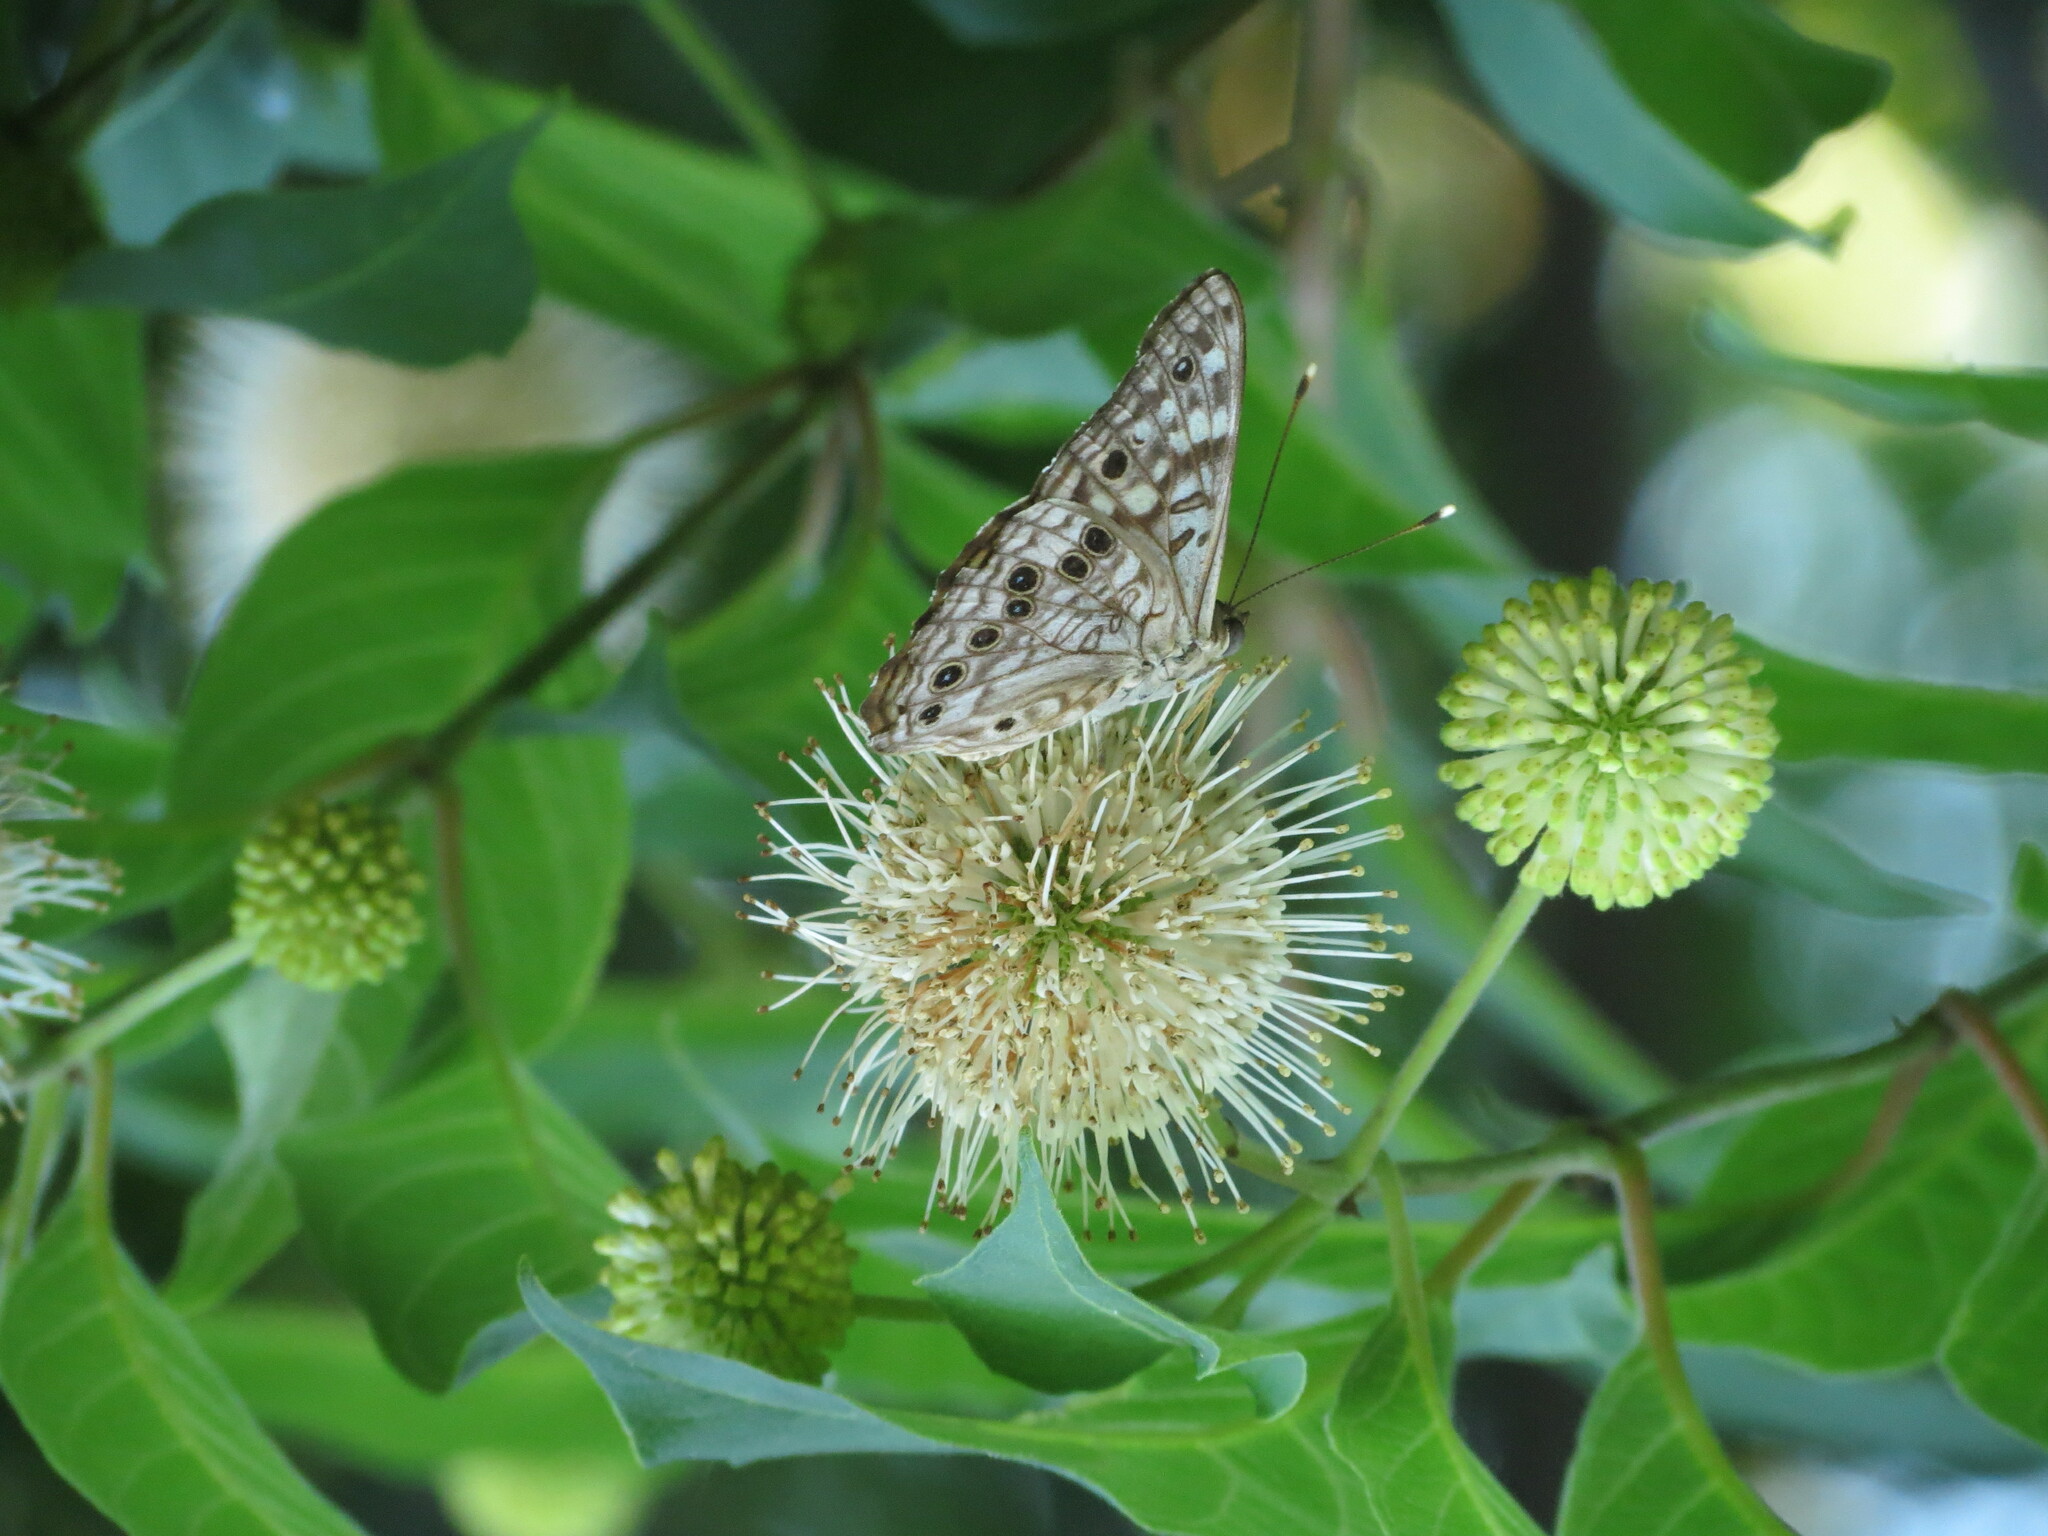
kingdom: Animalia
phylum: Arthropoda
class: Insecta
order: Lepidoptera
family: Nymphalidae
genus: Asterocampa
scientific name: Asterocampa celtis
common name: Hackberry emperor
